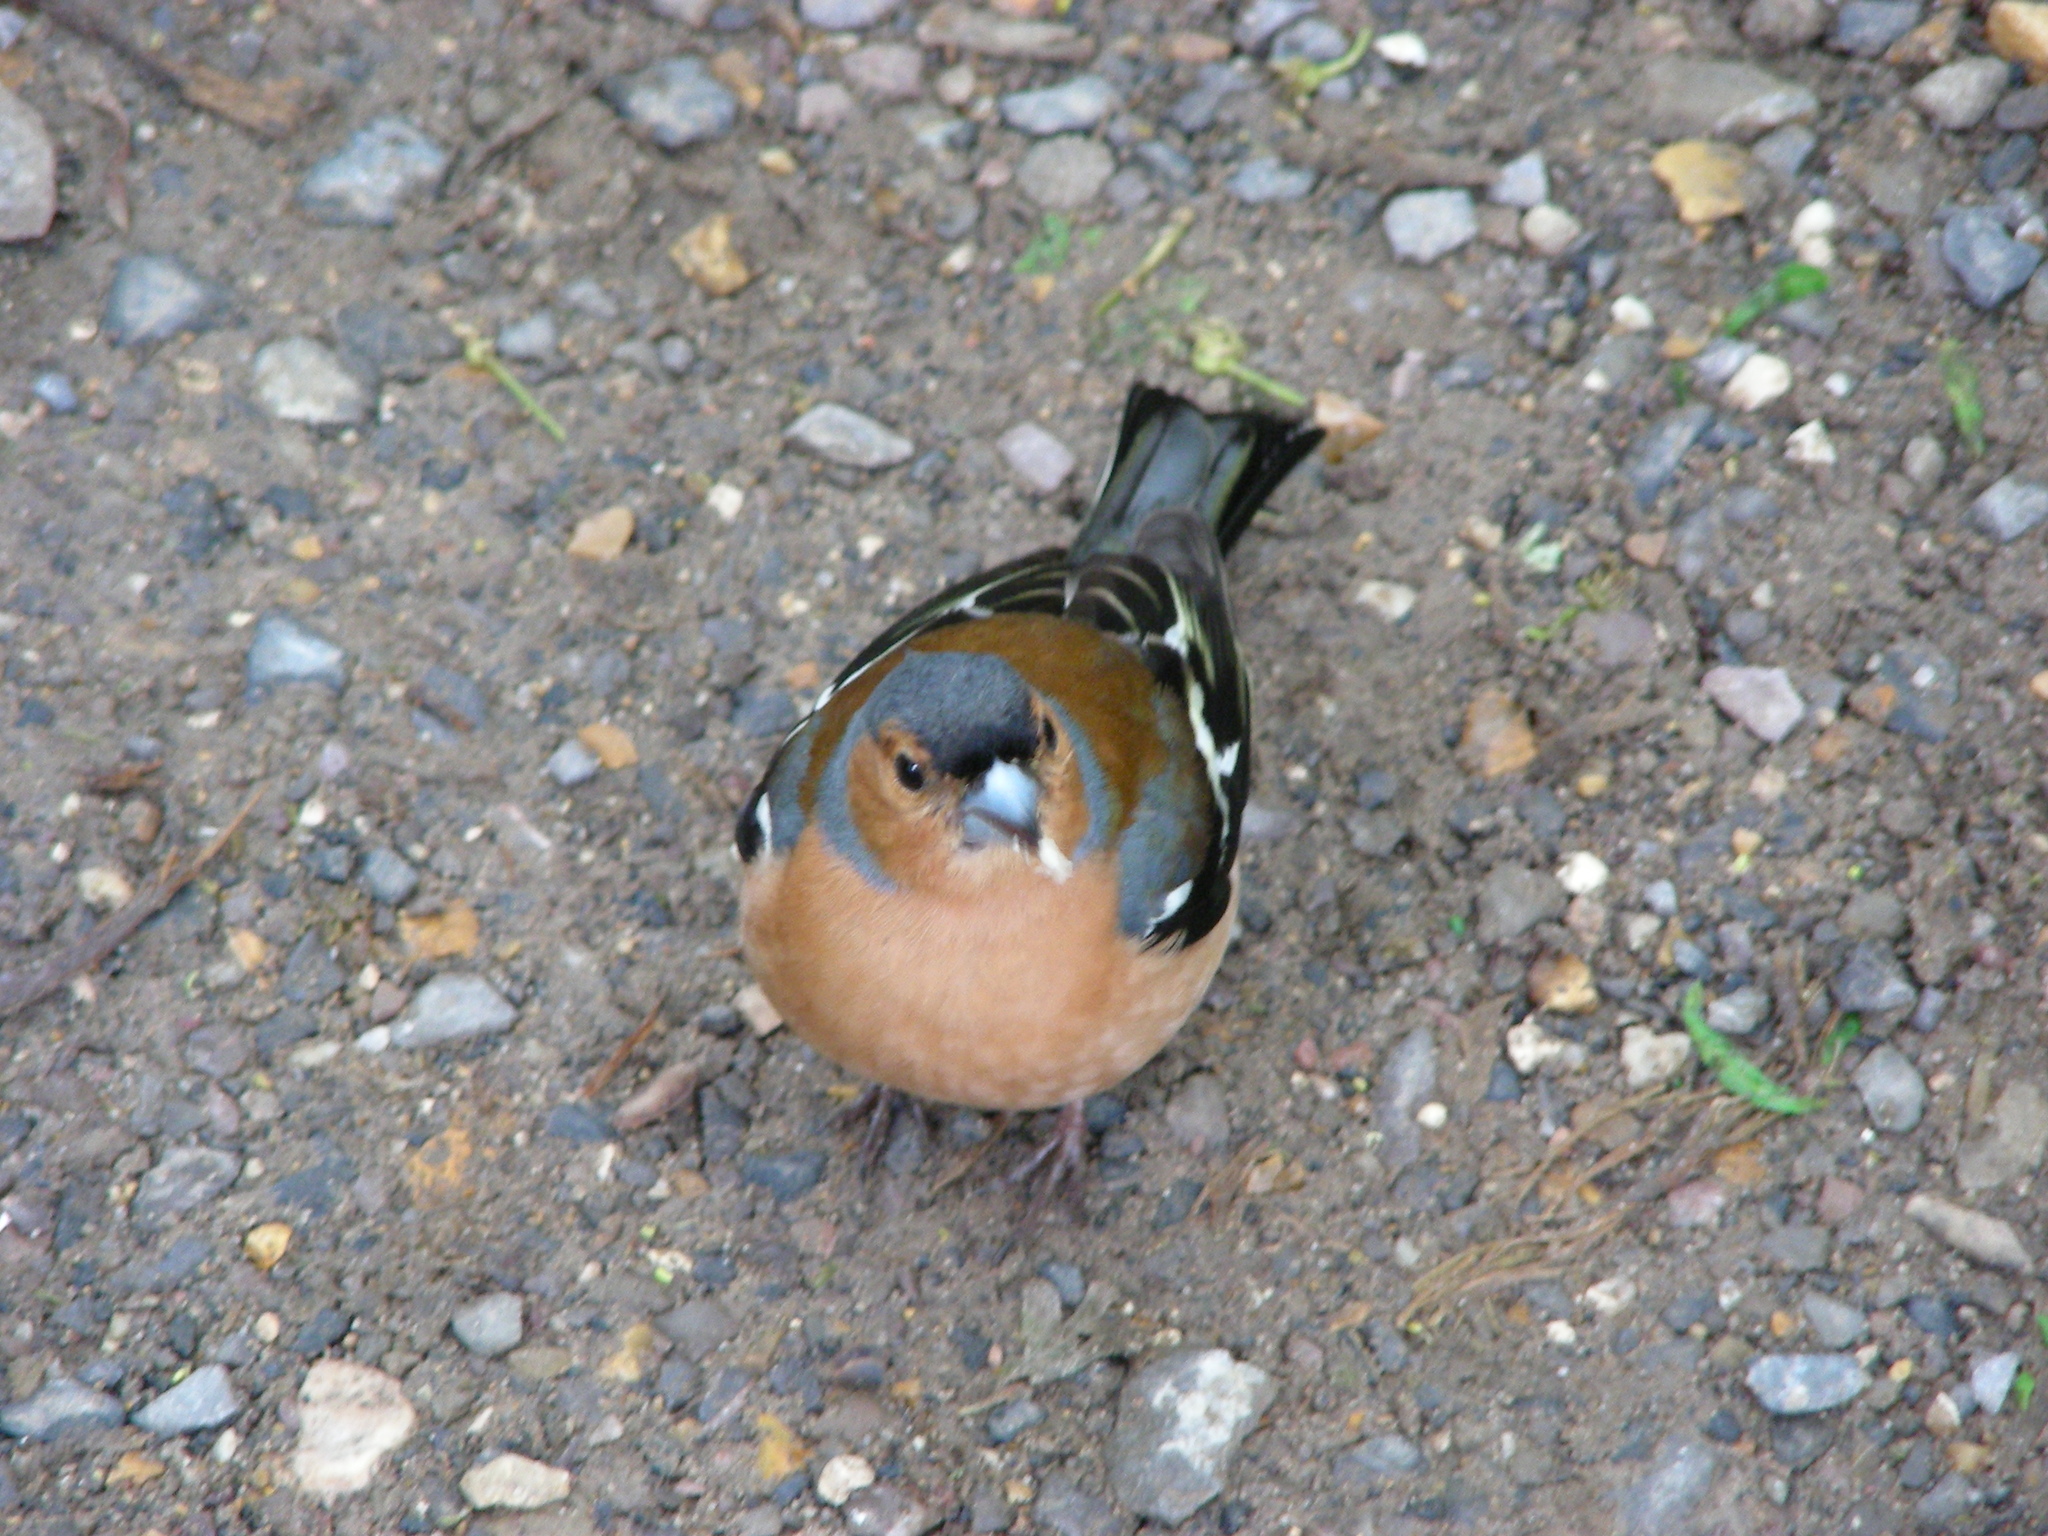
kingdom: Animalia
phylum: Chordata
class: Aves
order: Passeriformes
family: Fringillidae
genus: Fringilla
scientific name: Fringilla coelebs
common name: Common chaffinch
